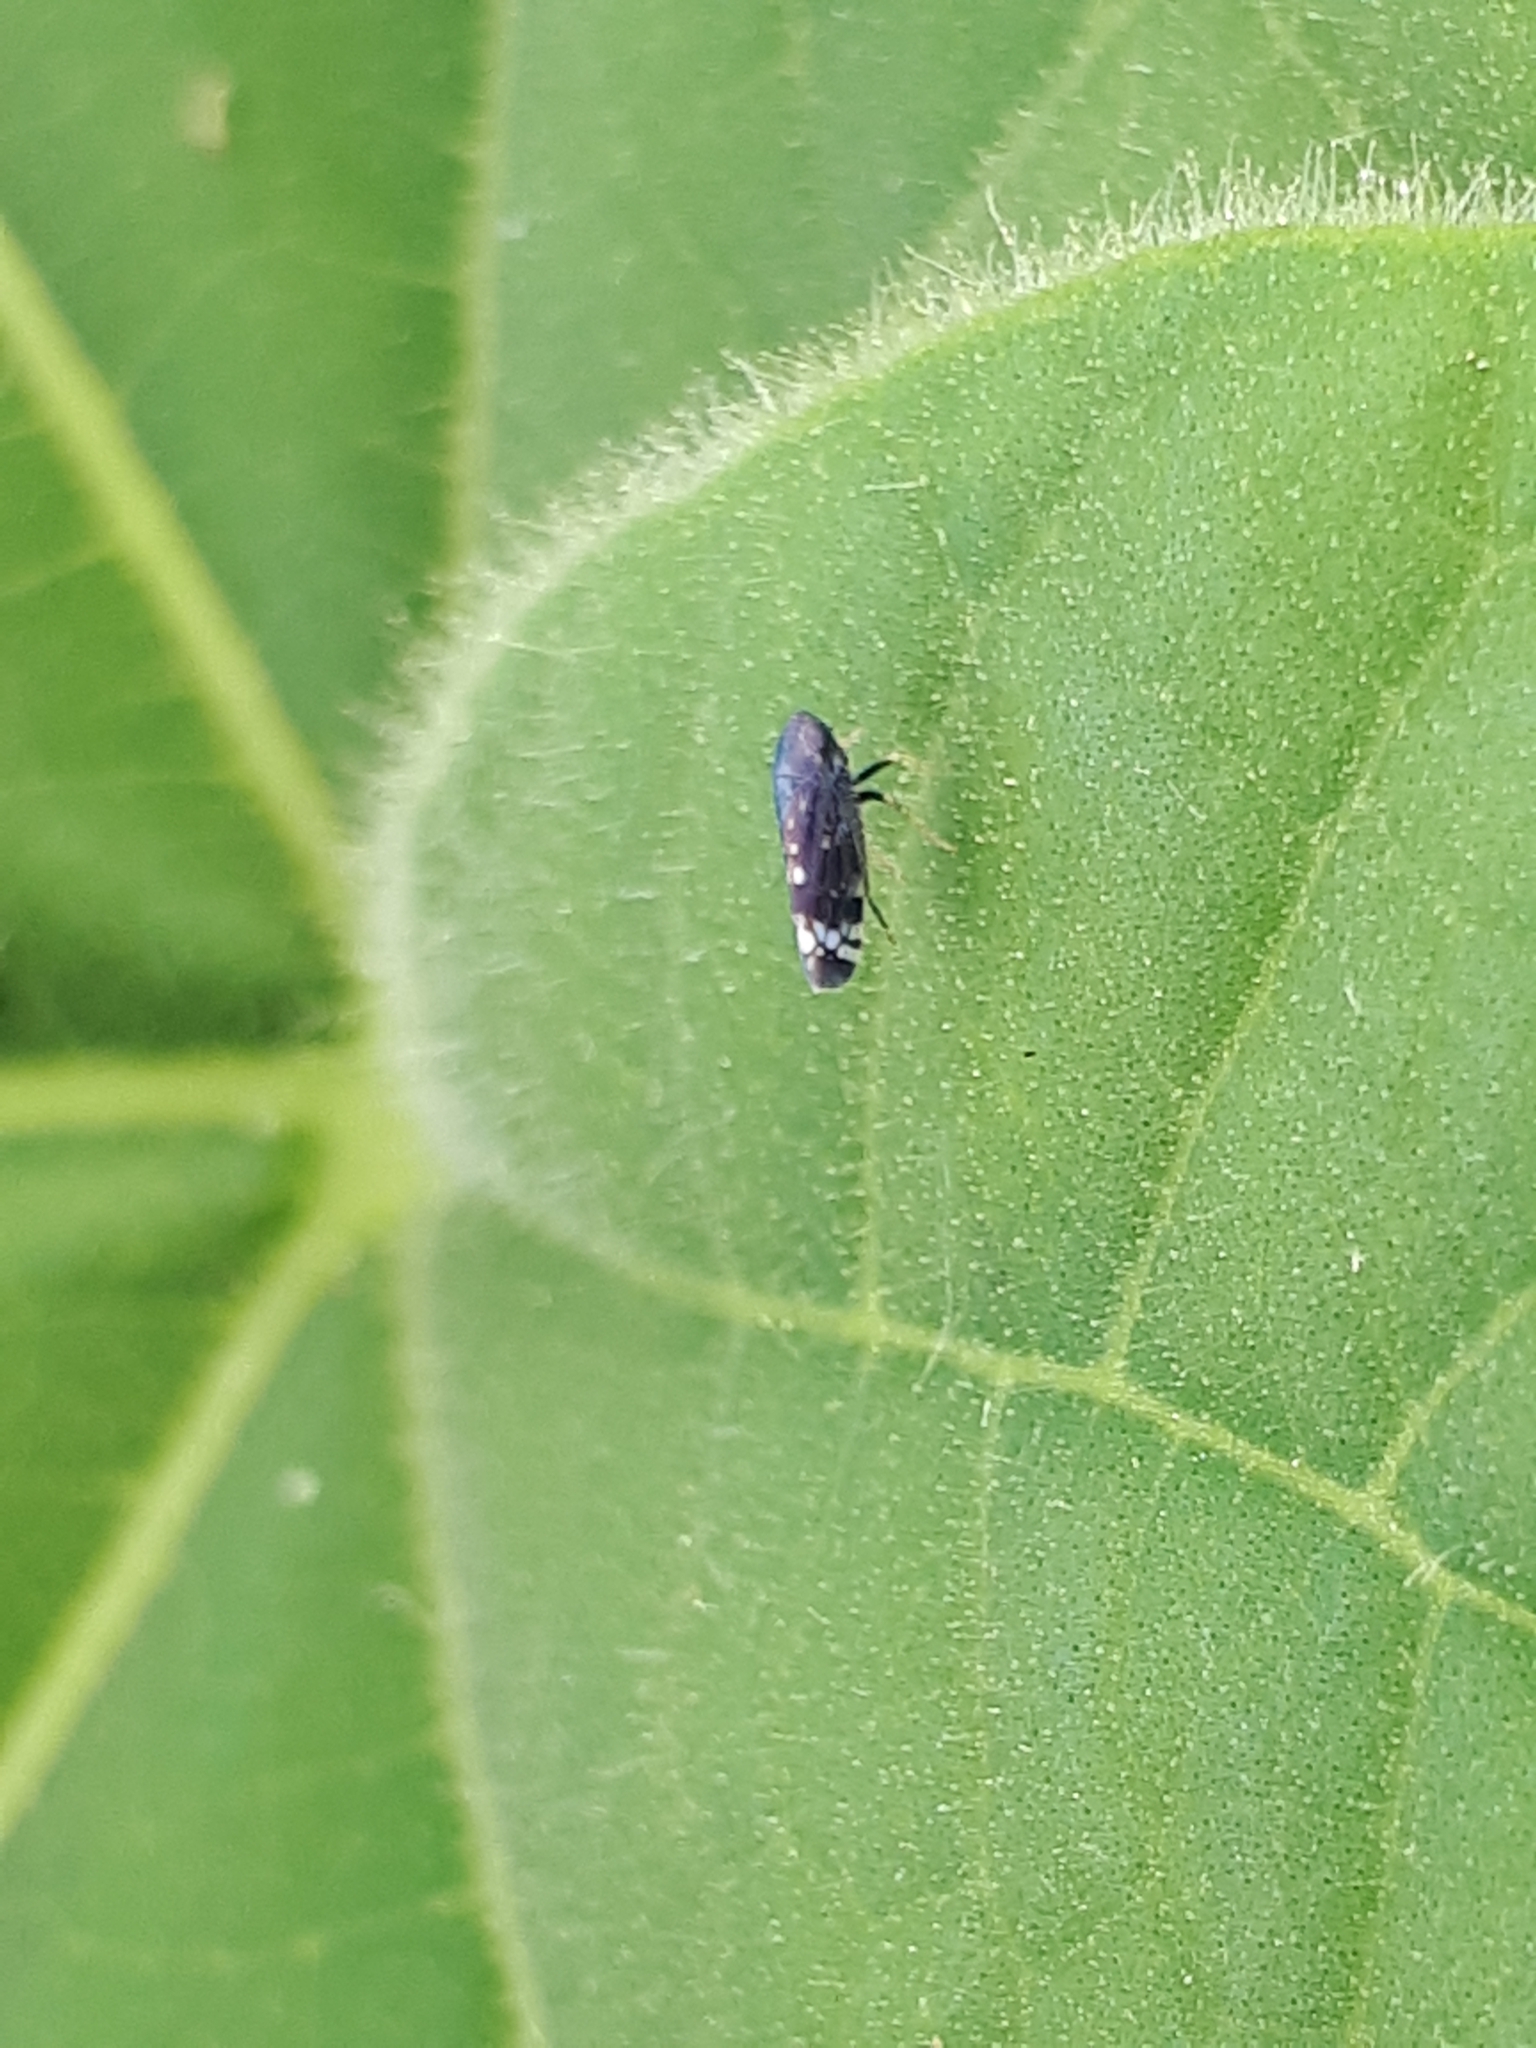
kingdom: Animalia
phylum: Arthropoda
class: Insecta
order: Hemiptera
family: Cicadellidae
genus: Neoaliturus
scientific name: Neoaliturus fenestratus
